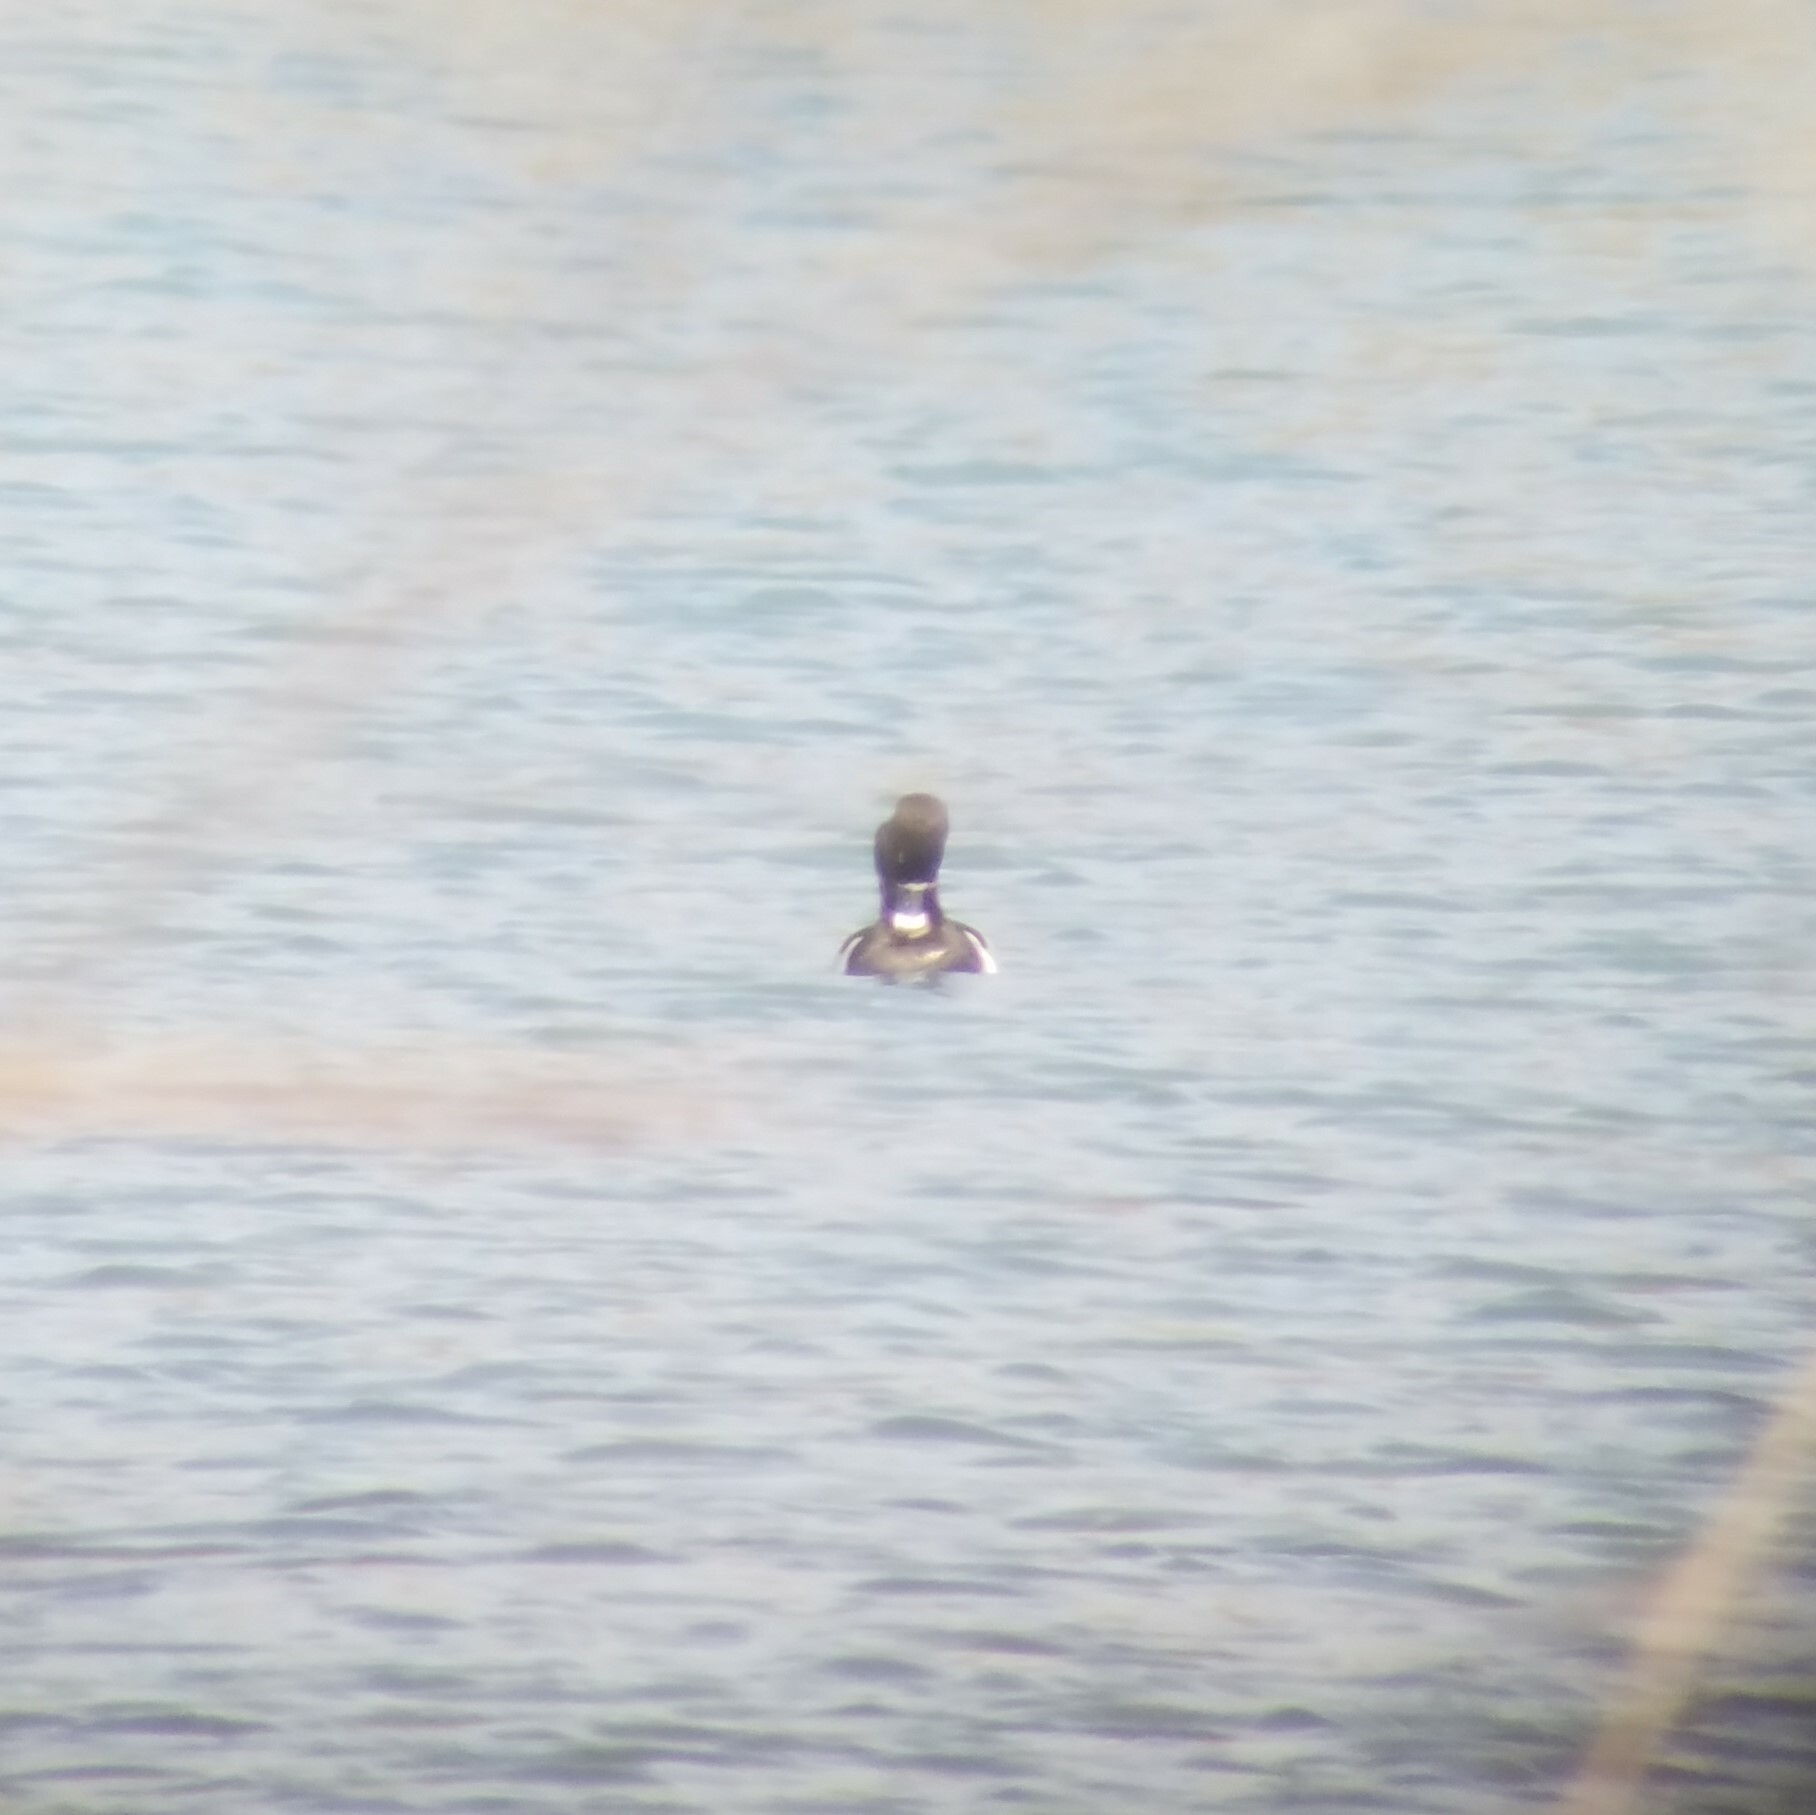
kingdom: Animalia
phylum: Chordata
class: Aves
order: Anseriformes
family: Anatidae
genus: Aythya
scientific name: Aythya collaris
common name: Ring-necked duck
